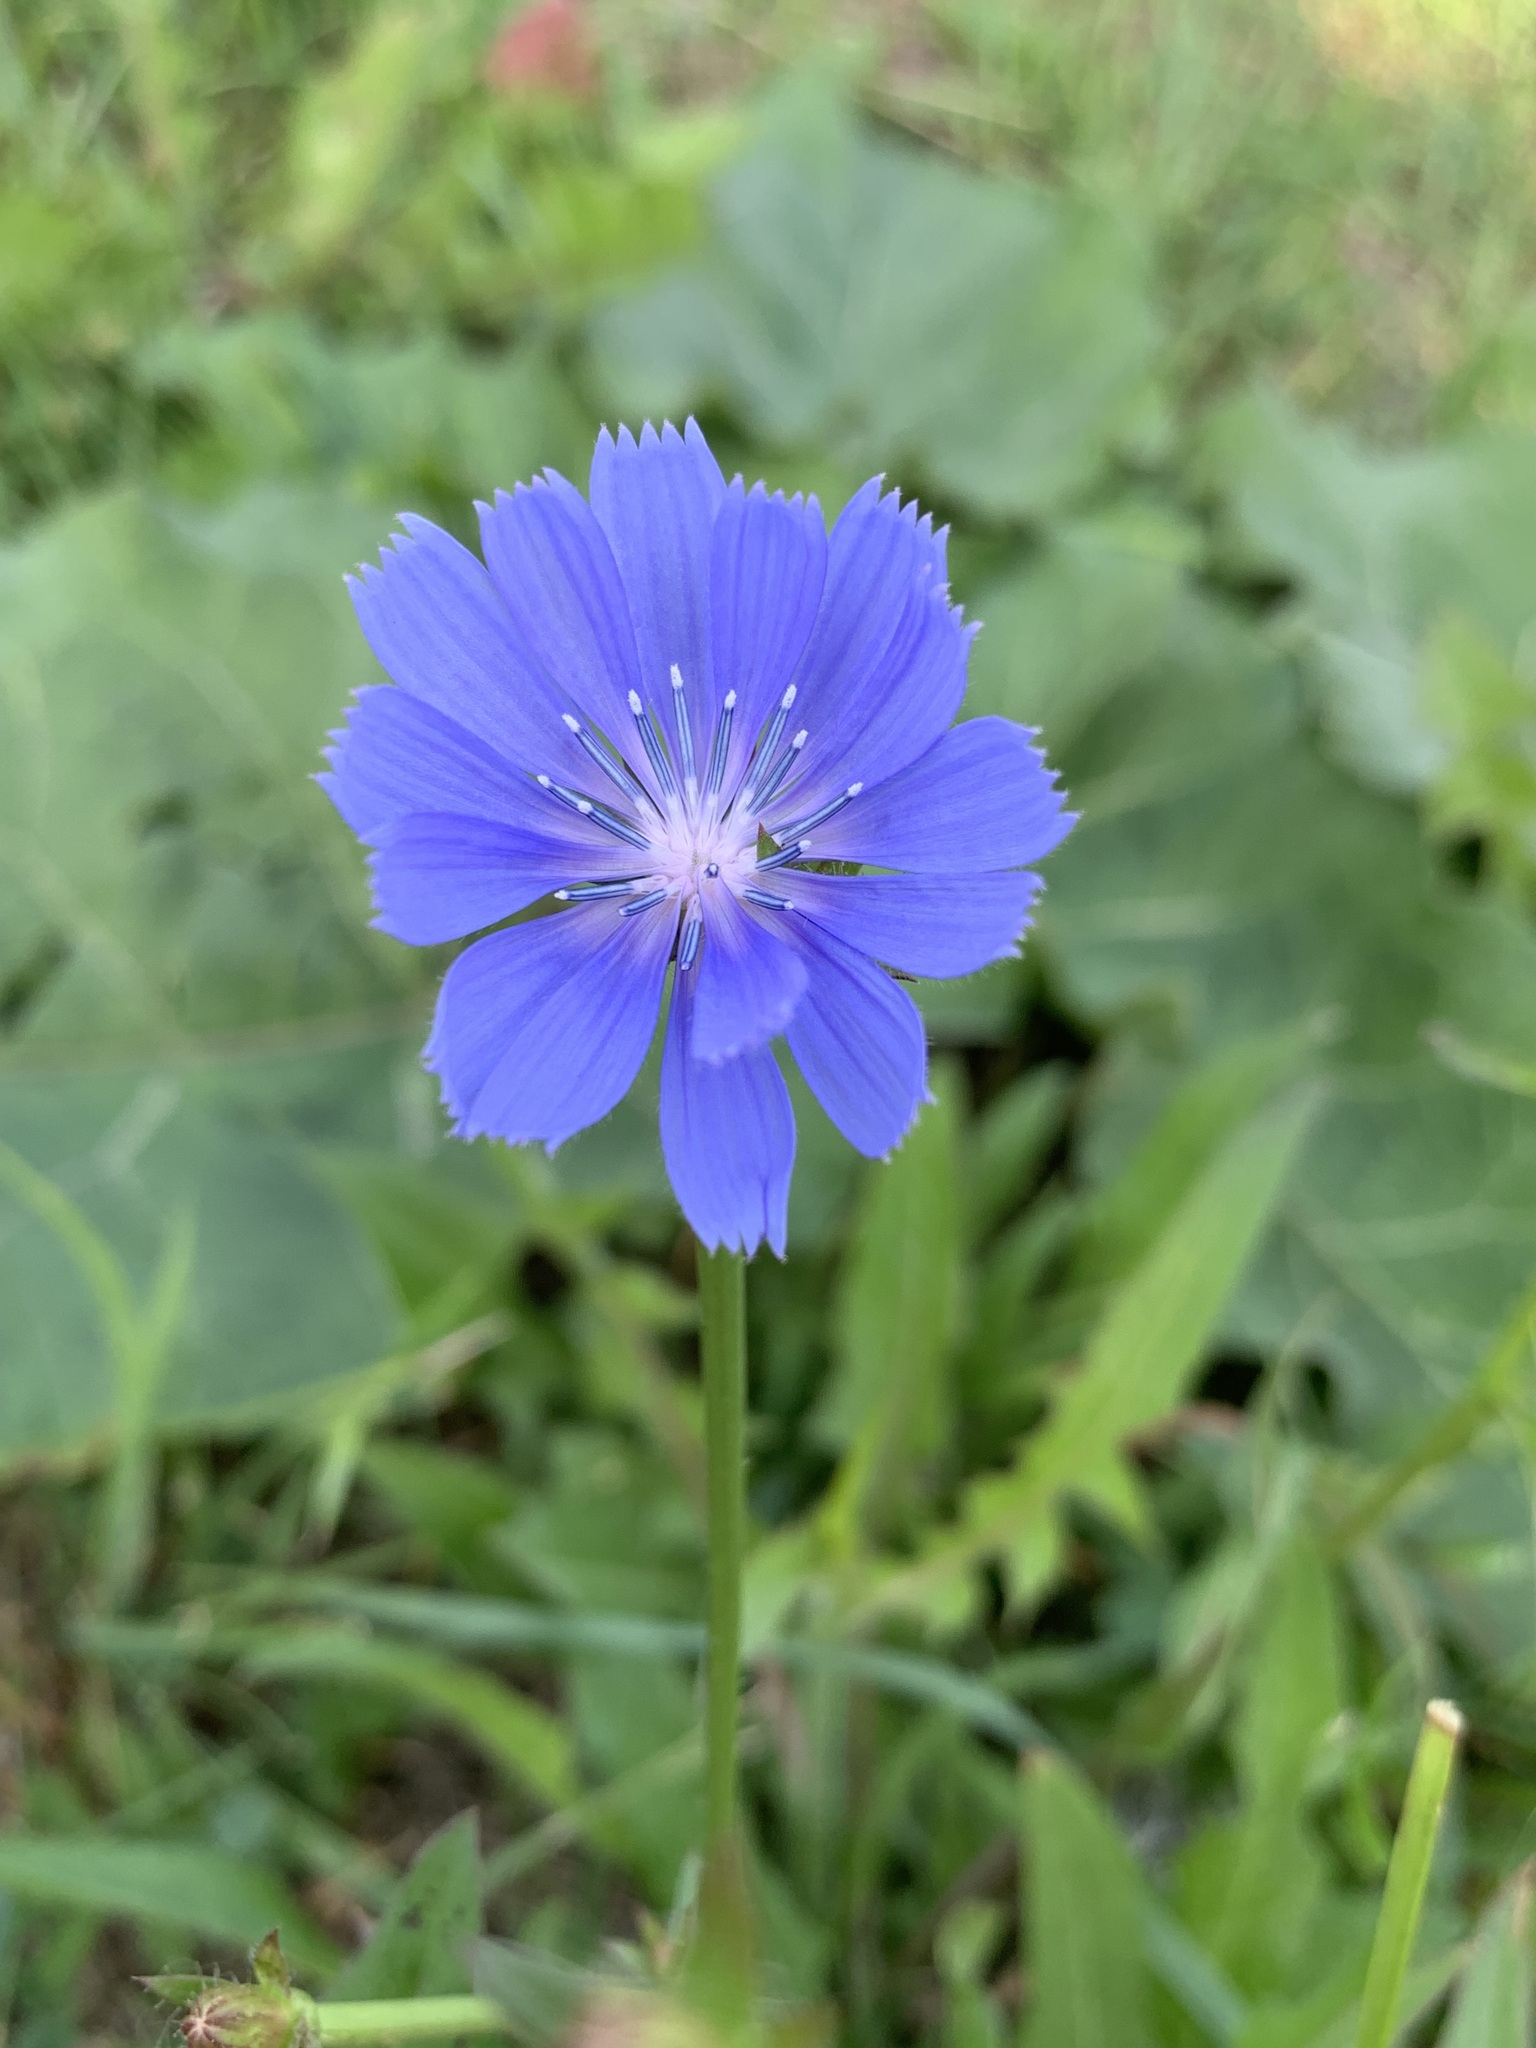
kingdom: Plantae
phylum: Tracheophyta
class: Magnoliopsida
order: Asterales
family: Asteraceae
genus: Cichorium
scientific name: Cichorium intybus
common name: Chicory
